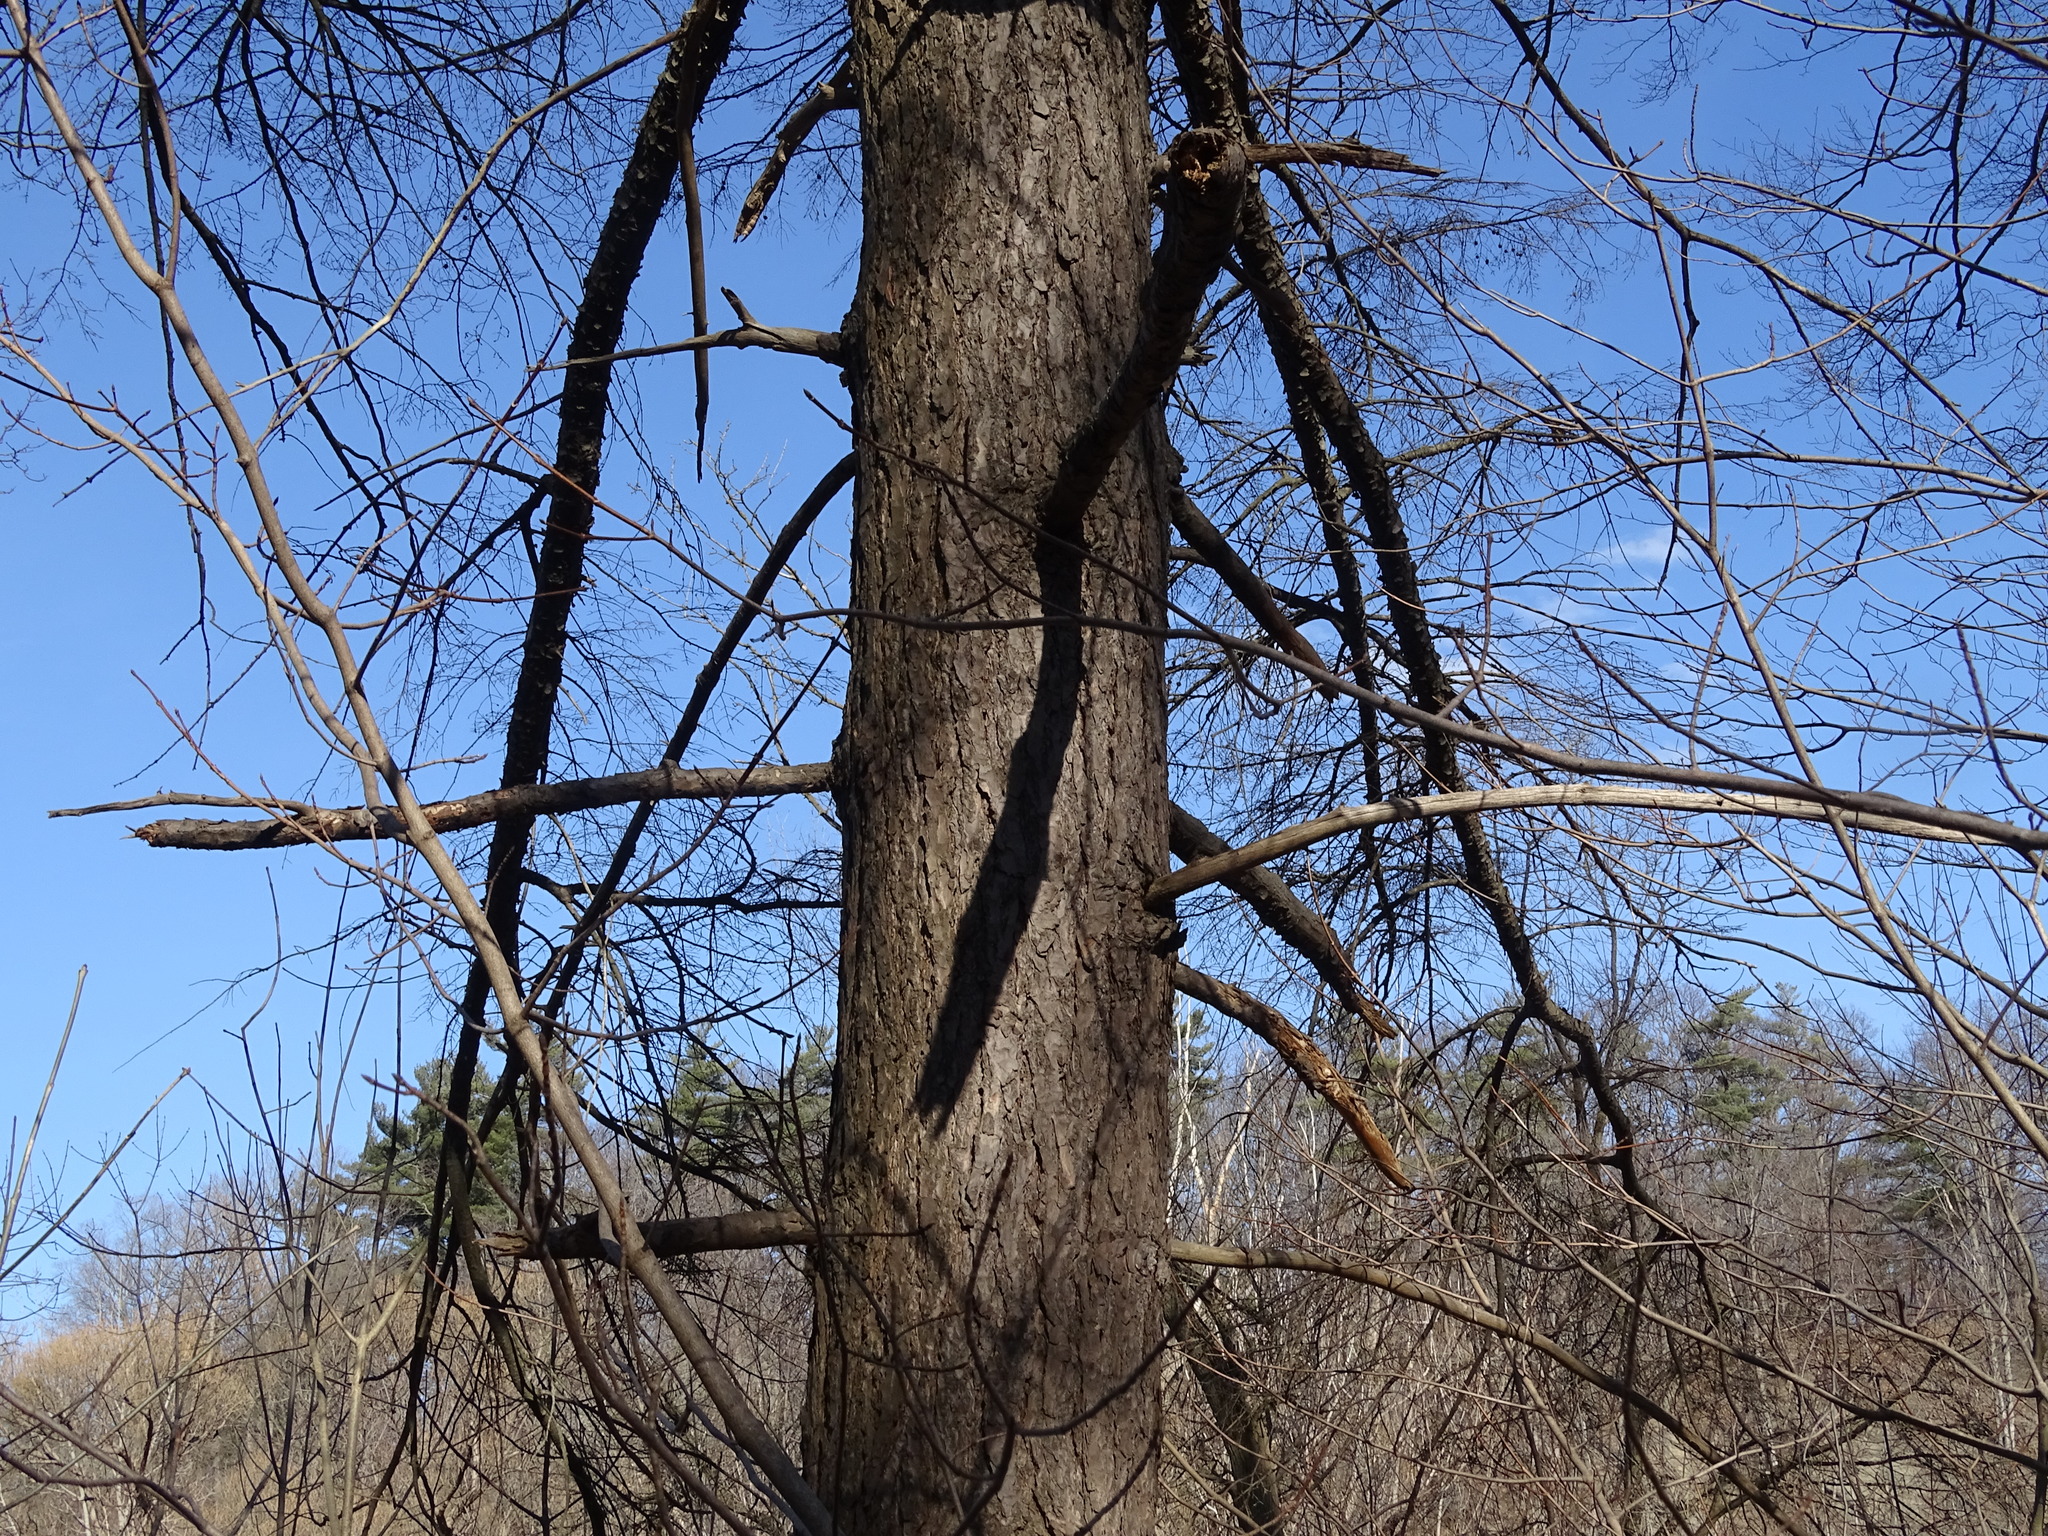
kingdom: Plantae
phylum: Tracheophyta
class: Pinopsida
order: Pinales
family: Pinaceae
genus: Tsuga
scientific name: Tsuga canadensis
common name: Eastern hemlock
